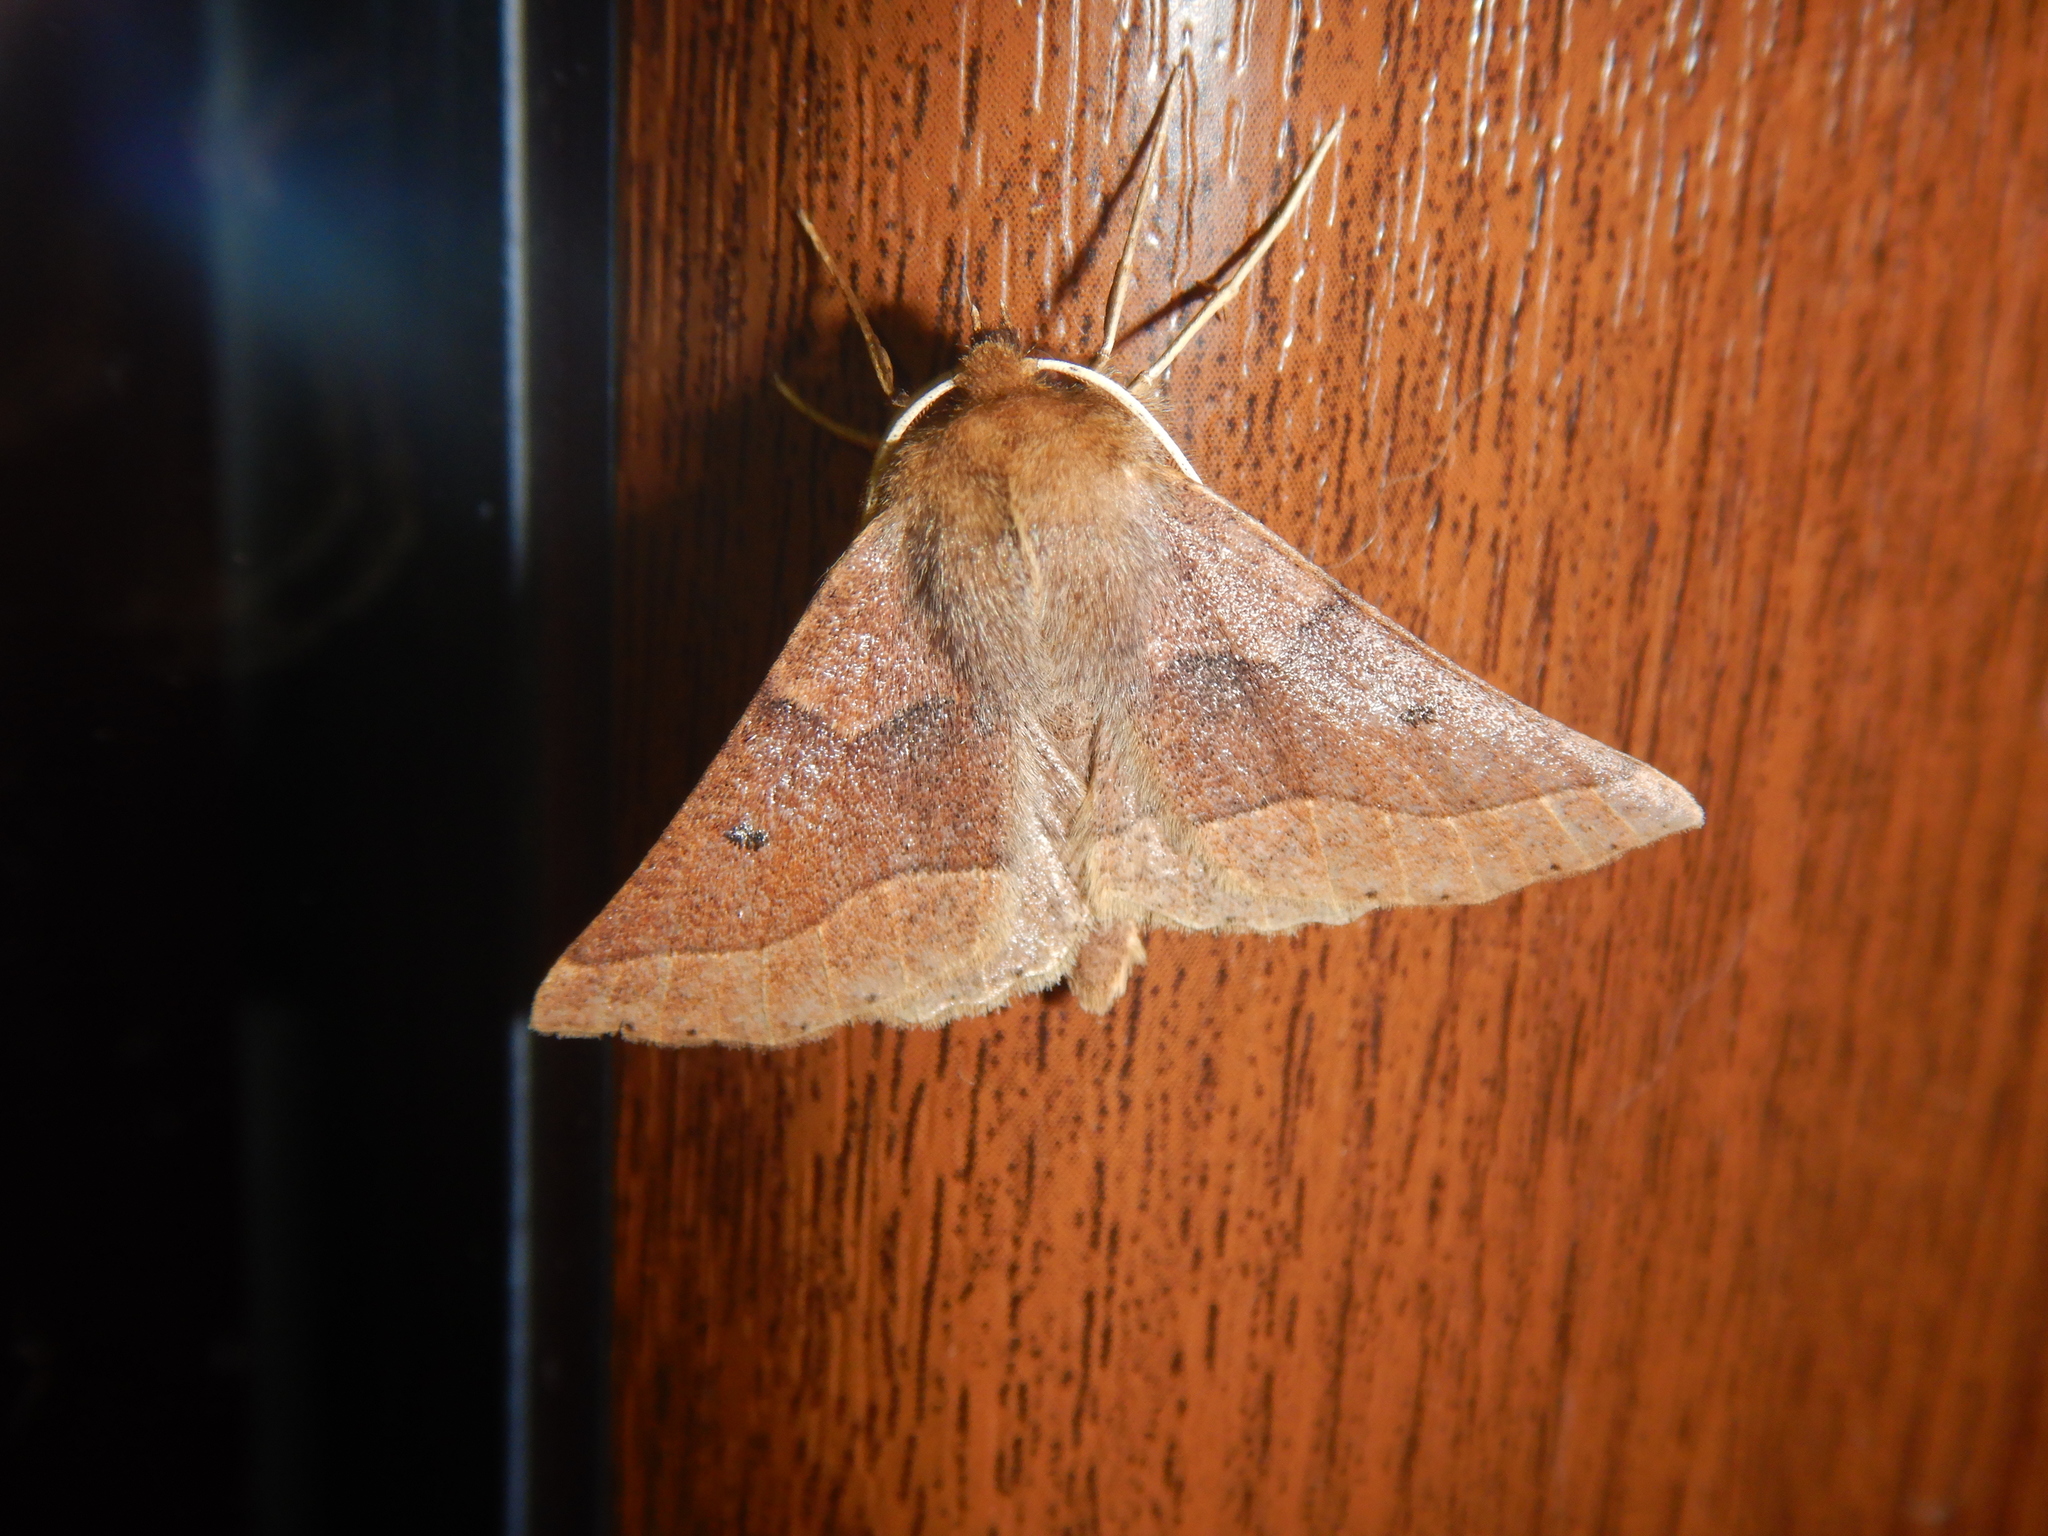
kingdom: Animalia
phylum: Arthropoda
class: Insecta
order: Lepidoptera
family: Geometridae
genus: Crocallis
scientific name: Crocallis tusciaria
